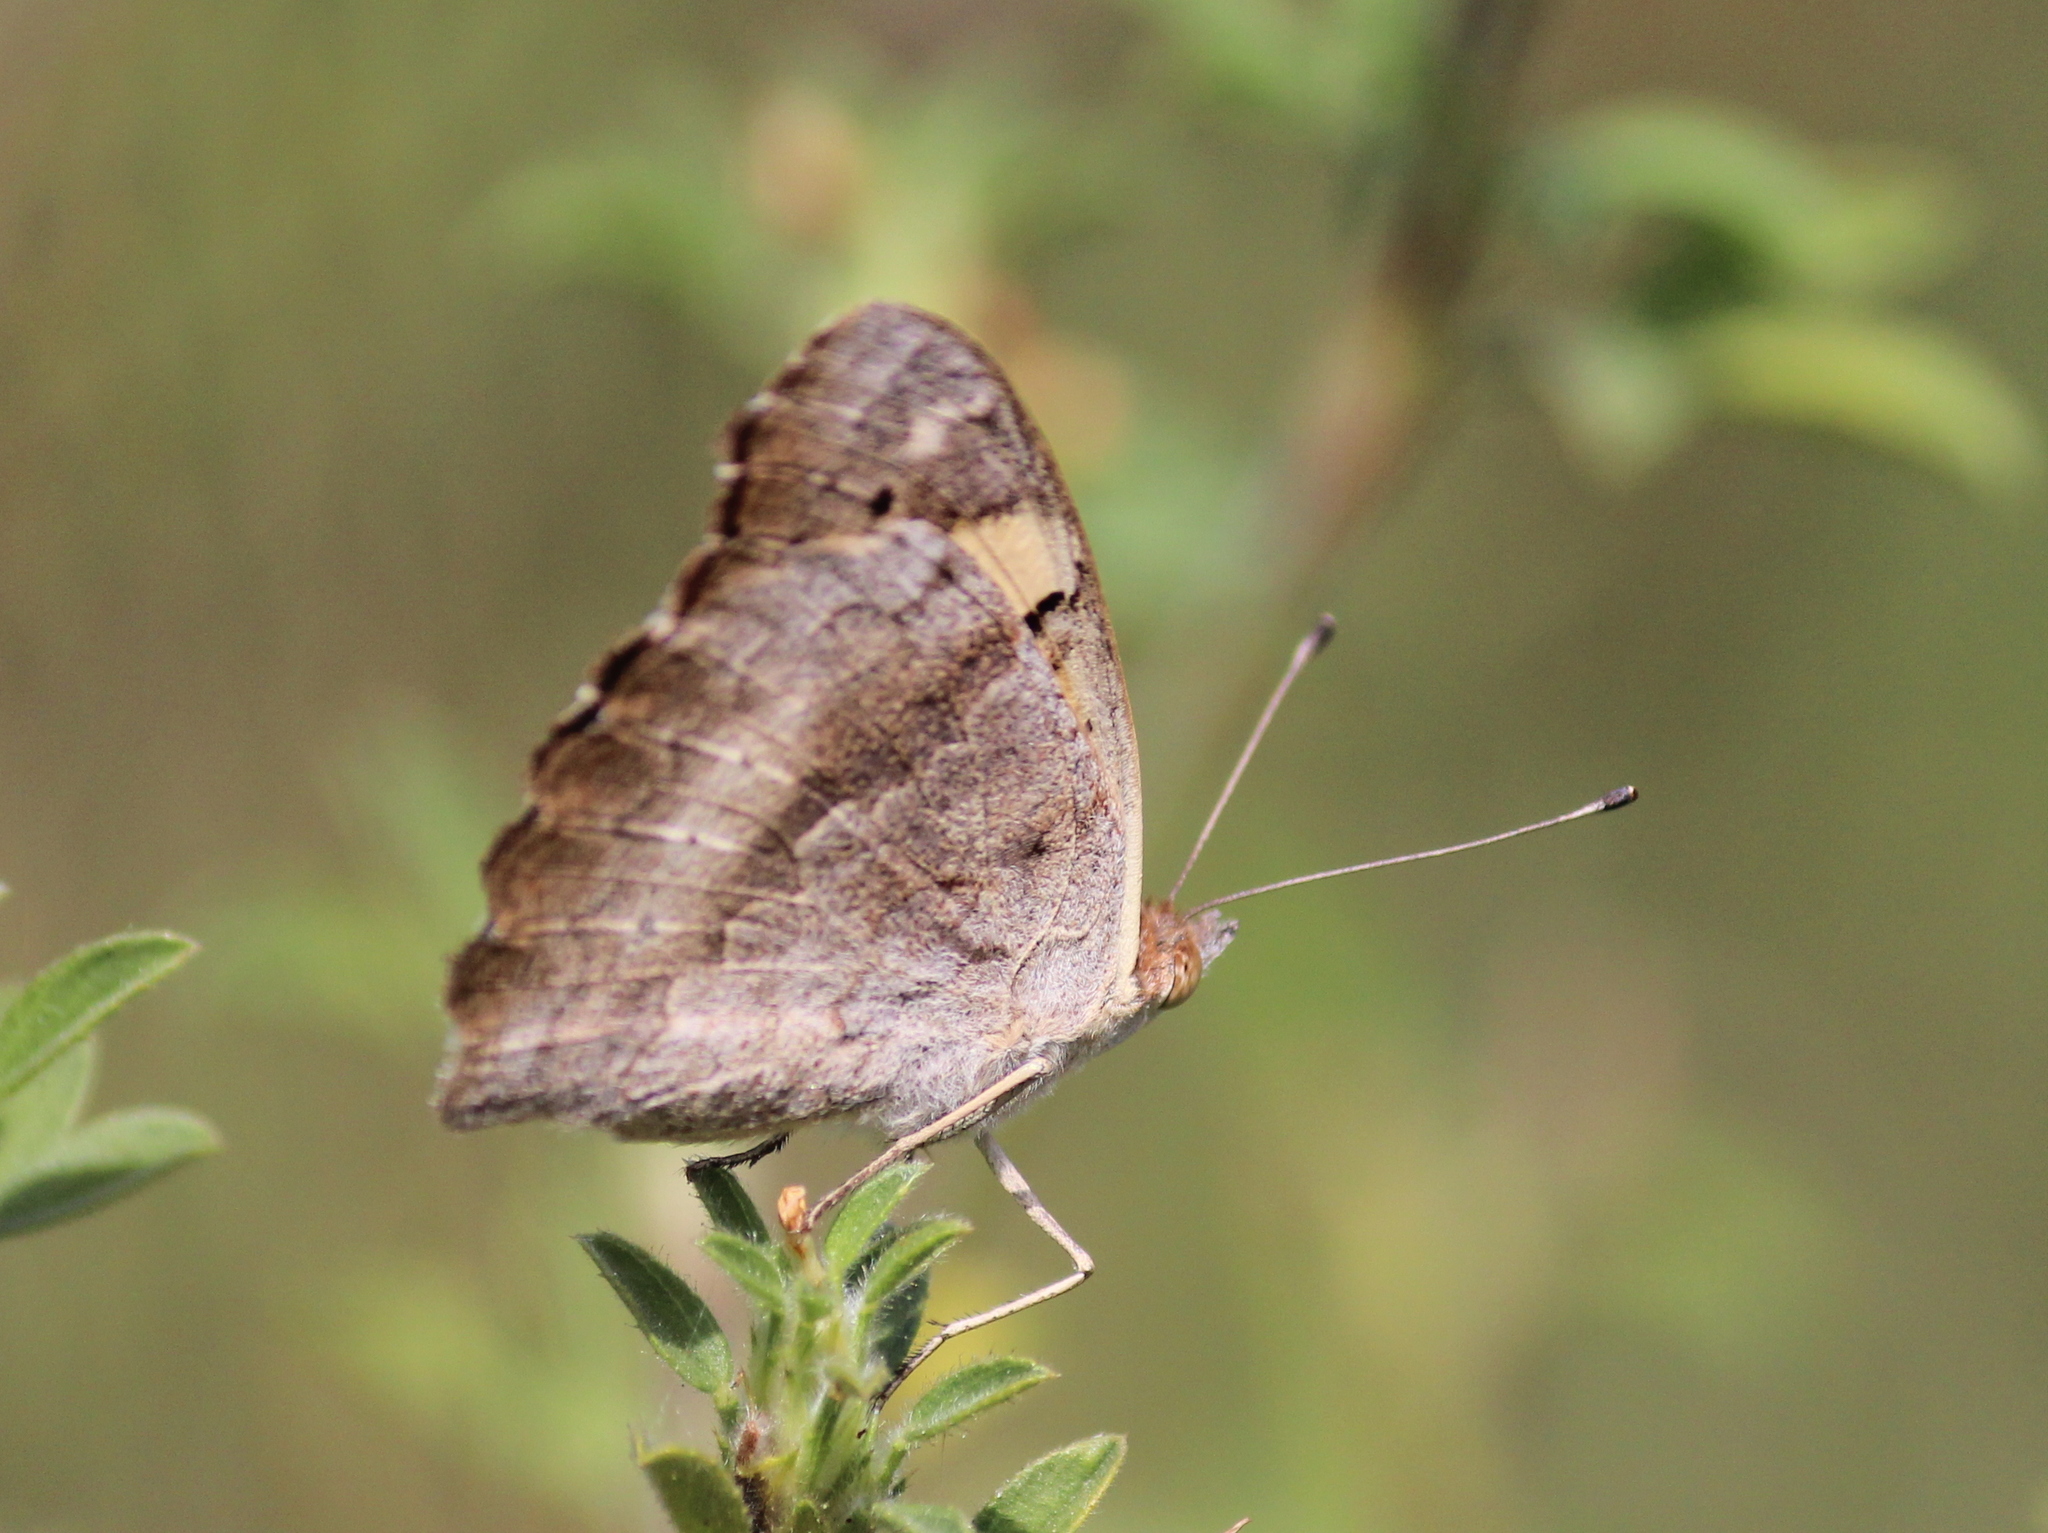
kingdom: Animalia
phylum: Arthropoda
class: Insecta
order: Lepidoptera
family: Nymphalidae
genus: Junonia
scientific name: Junonia hierta
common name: Yellow pansy
